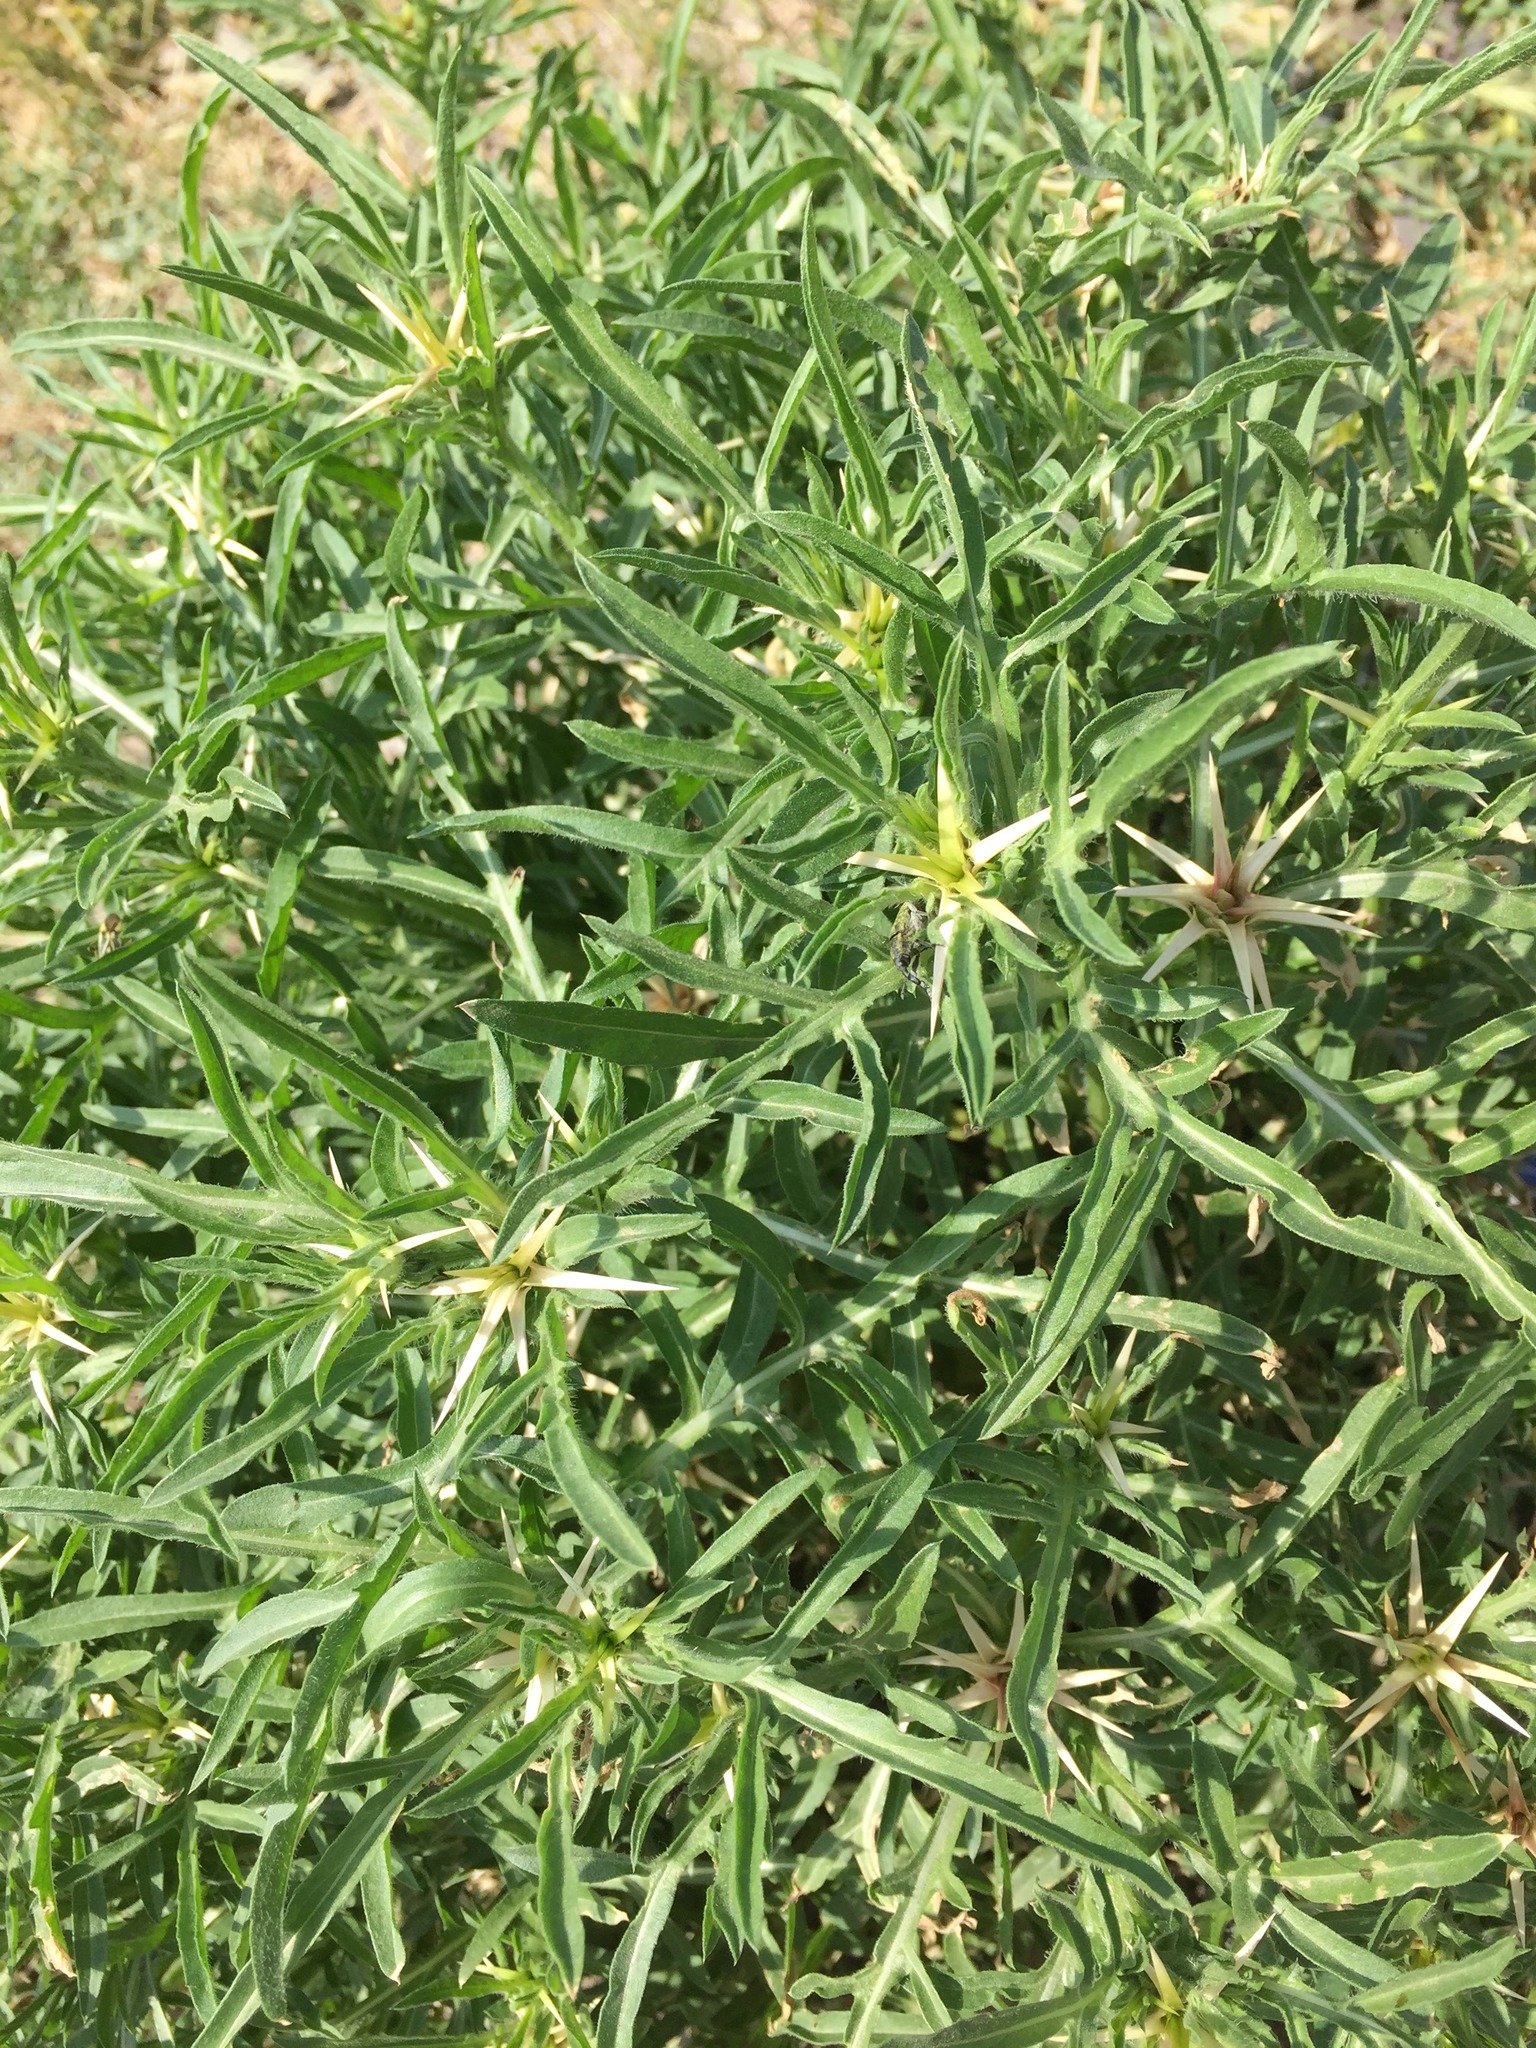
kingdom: Plantae
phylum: Tracheophyta
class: Magnoliopsida
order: Asterales
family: Asteraceae
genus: Centaurea
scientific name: Centaurea calcitrapa
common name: Red star-thistle
